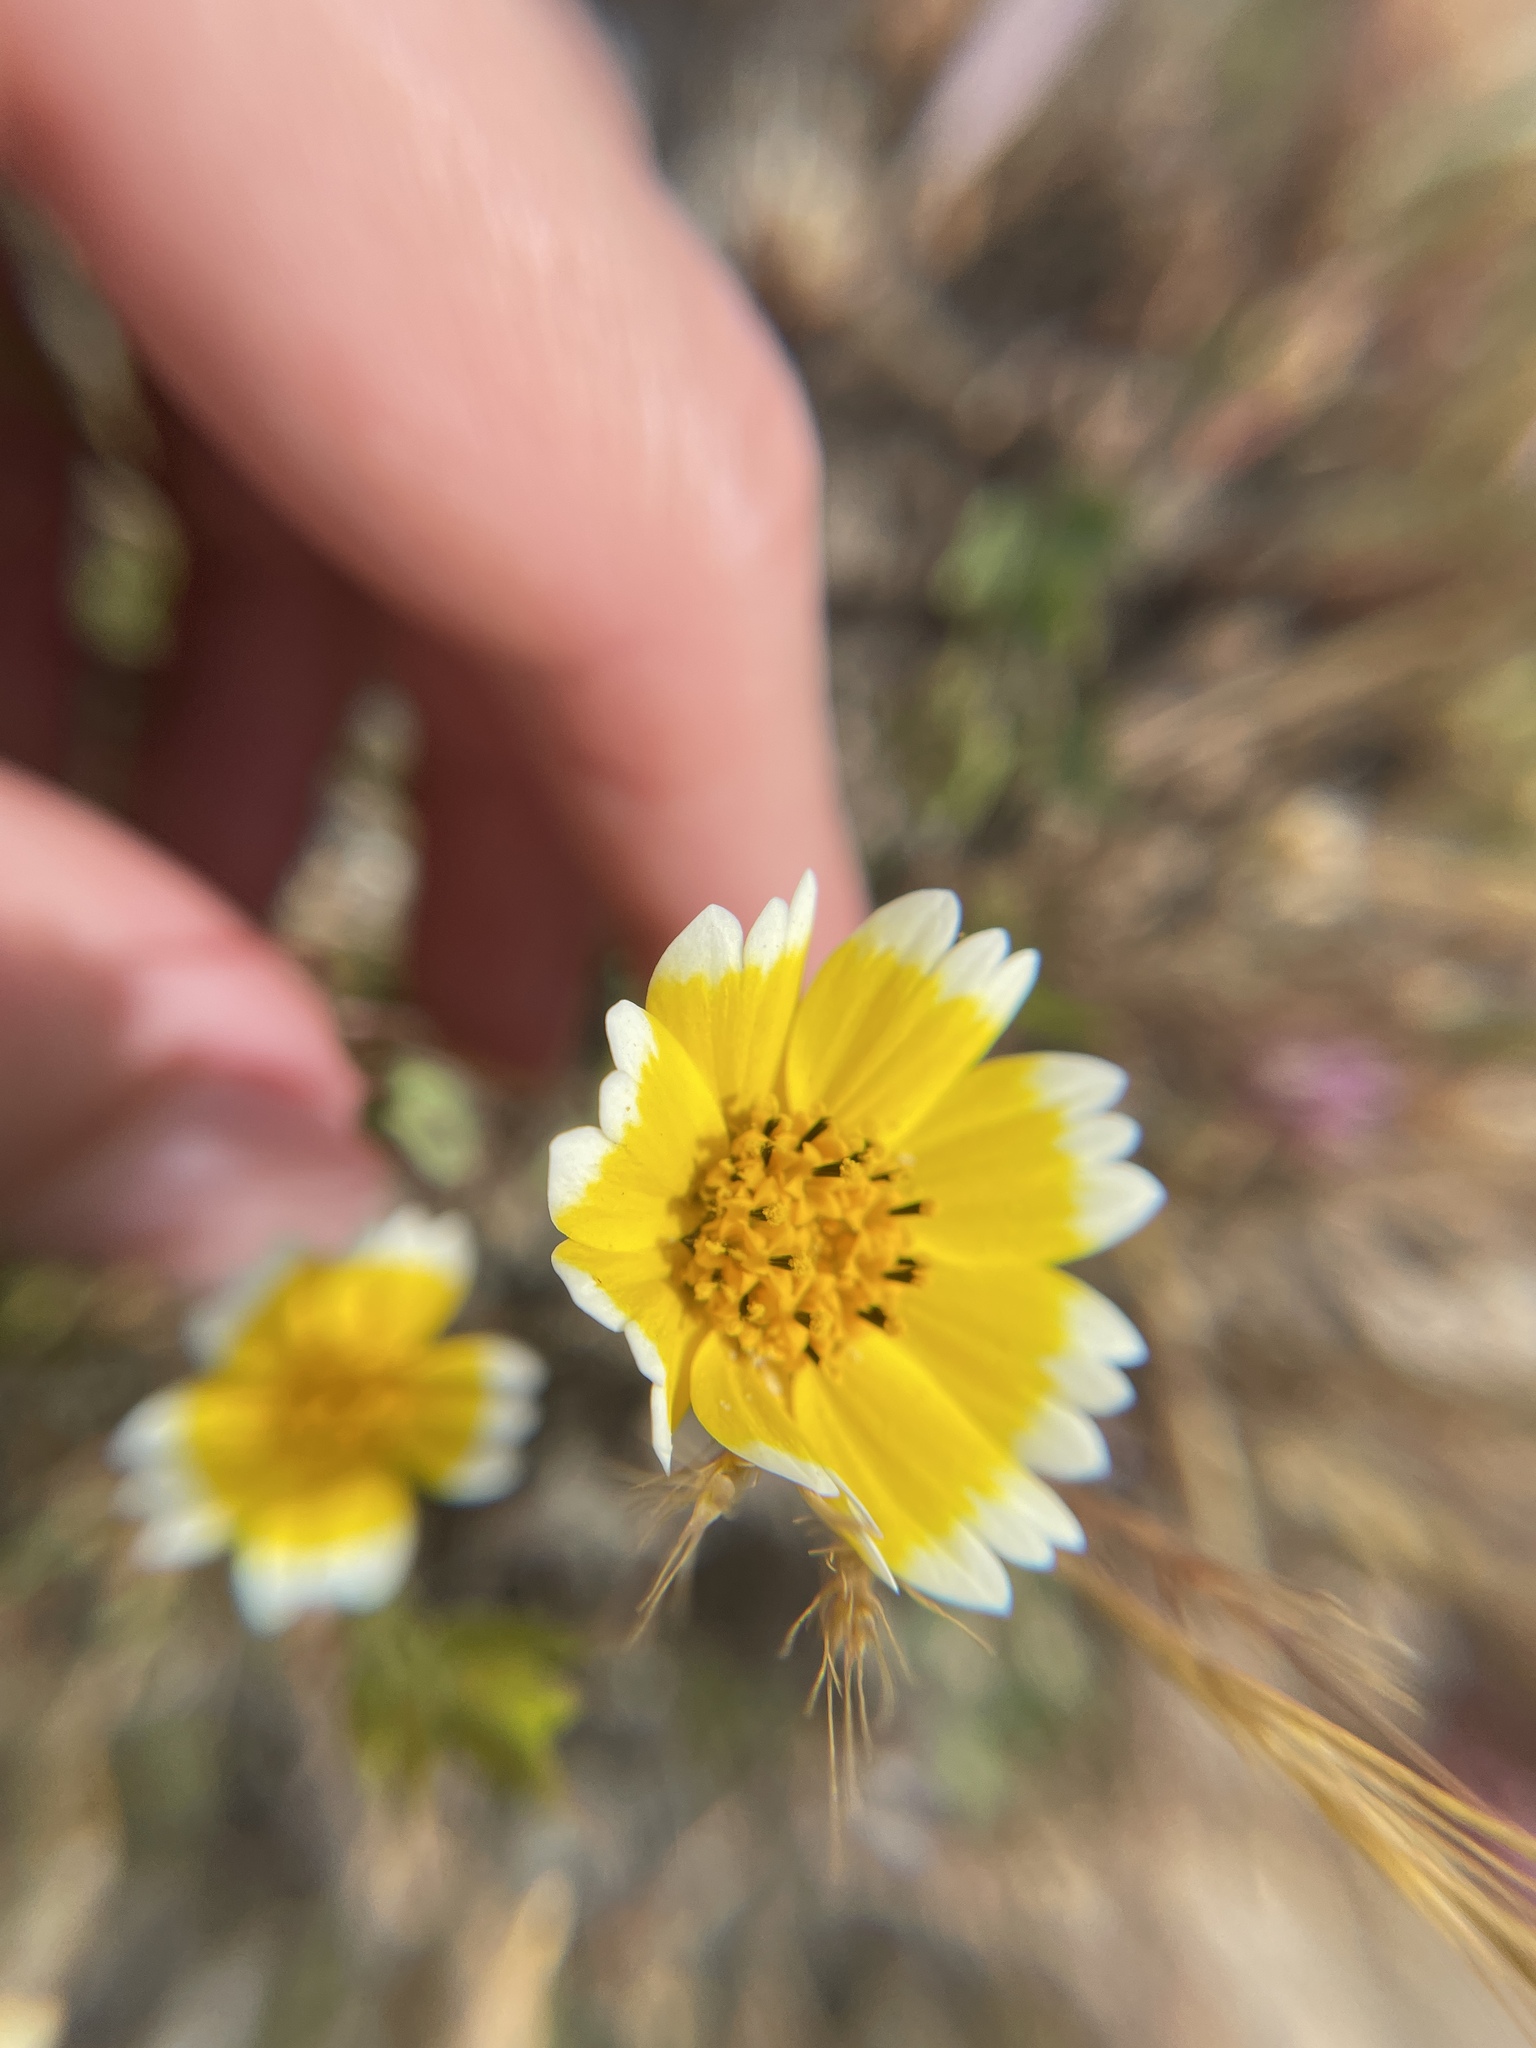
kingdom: Plantae
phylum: Tracheophyta
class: Magnoliopsida
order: Asterales
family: Asteraceae
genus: Layia
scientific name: Layia platyglossa
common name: Tidy-tips
